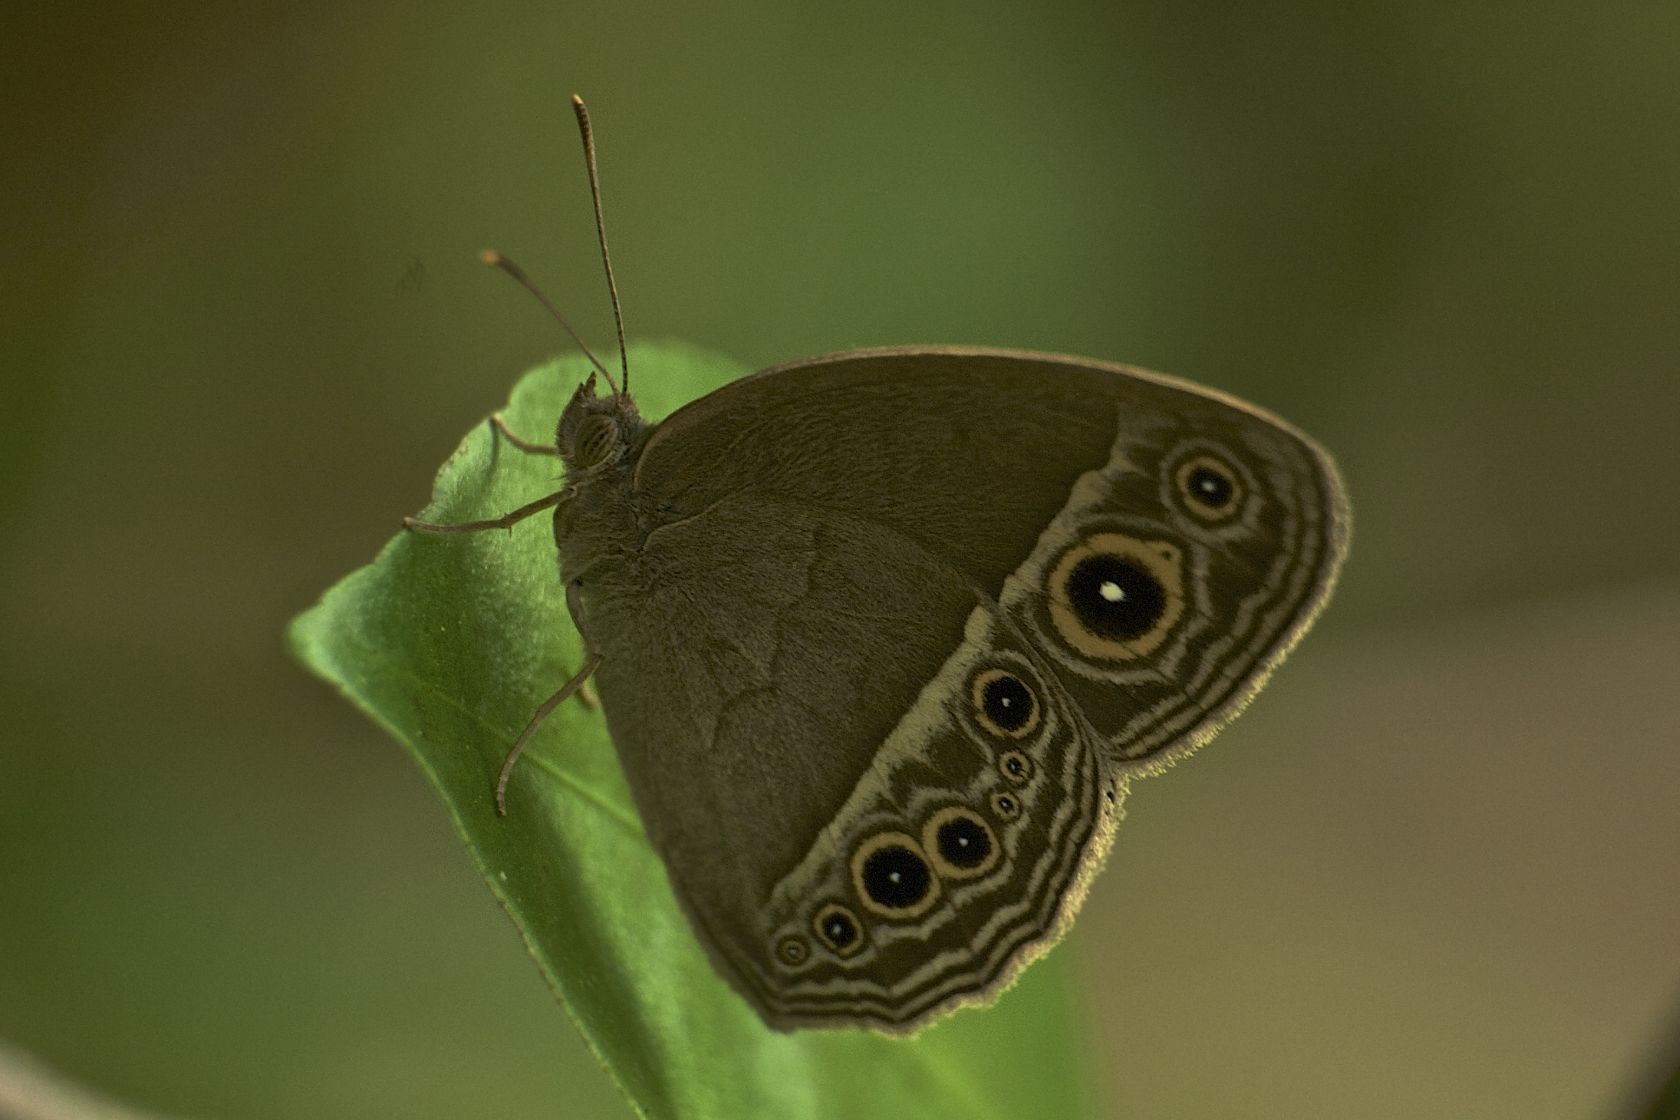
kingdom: Animalia
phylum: Arthropoda
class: Insecta
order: Lepidoptera
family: Nymphalidae
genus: Mycalesis
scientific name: Mycalesis mineus
